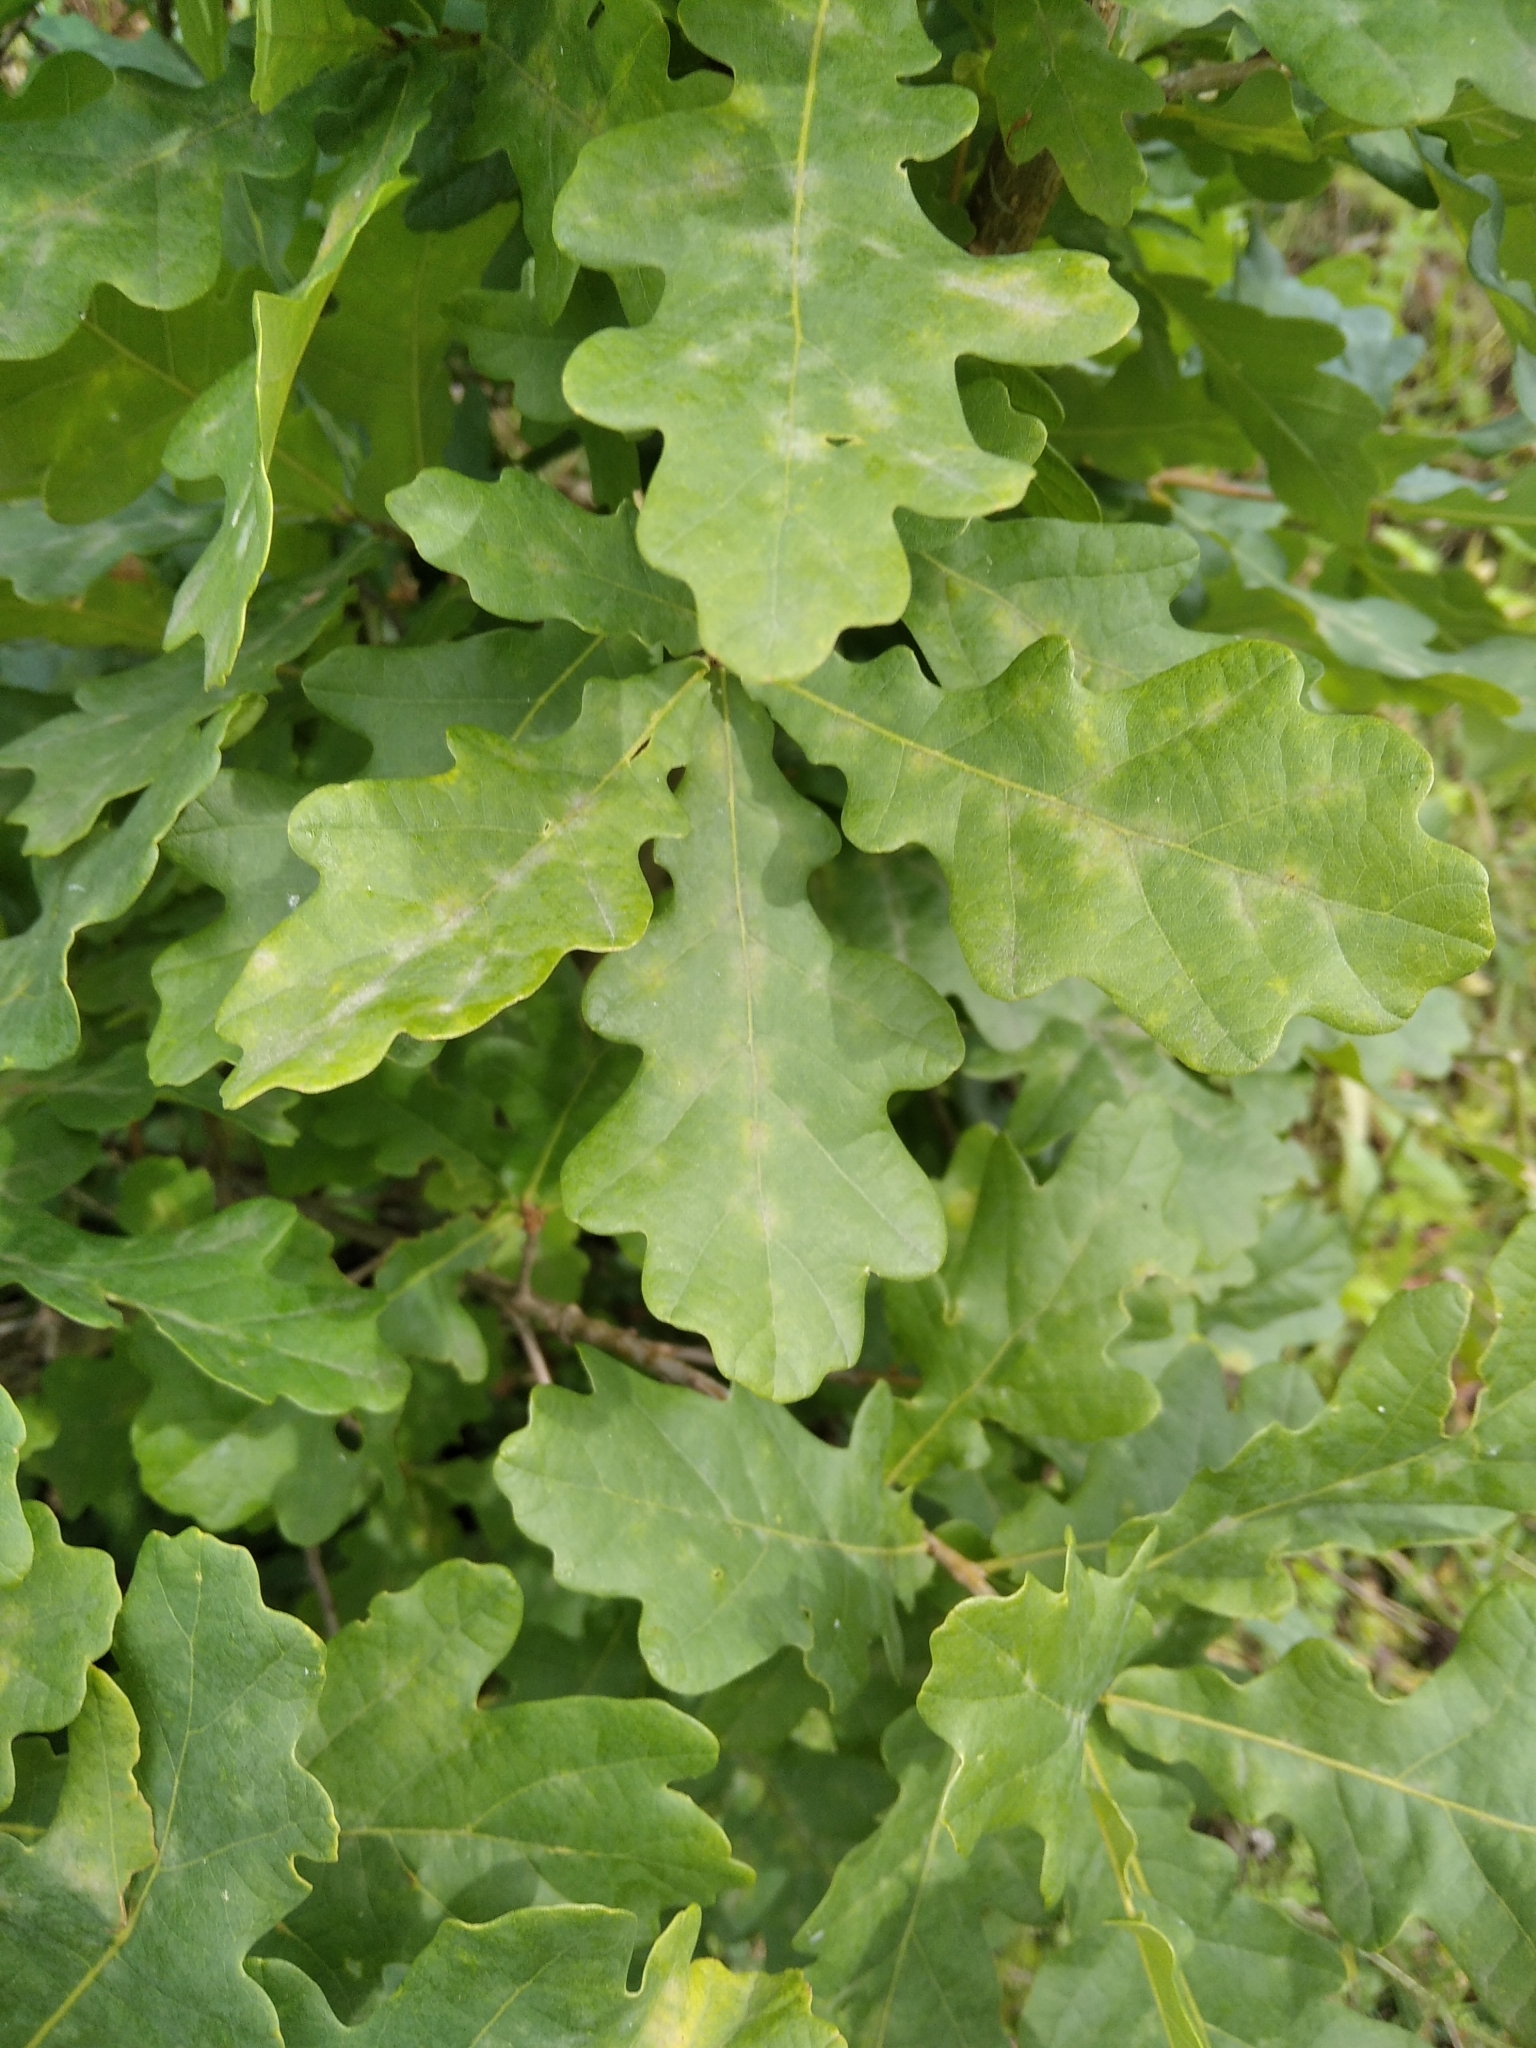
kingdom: Plantae
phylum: Tracheophyta
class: Magnoliopsida
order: Fagales
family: Fagaceae
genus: Quercus
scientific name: Quercus robur
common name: Pedunculate oak
